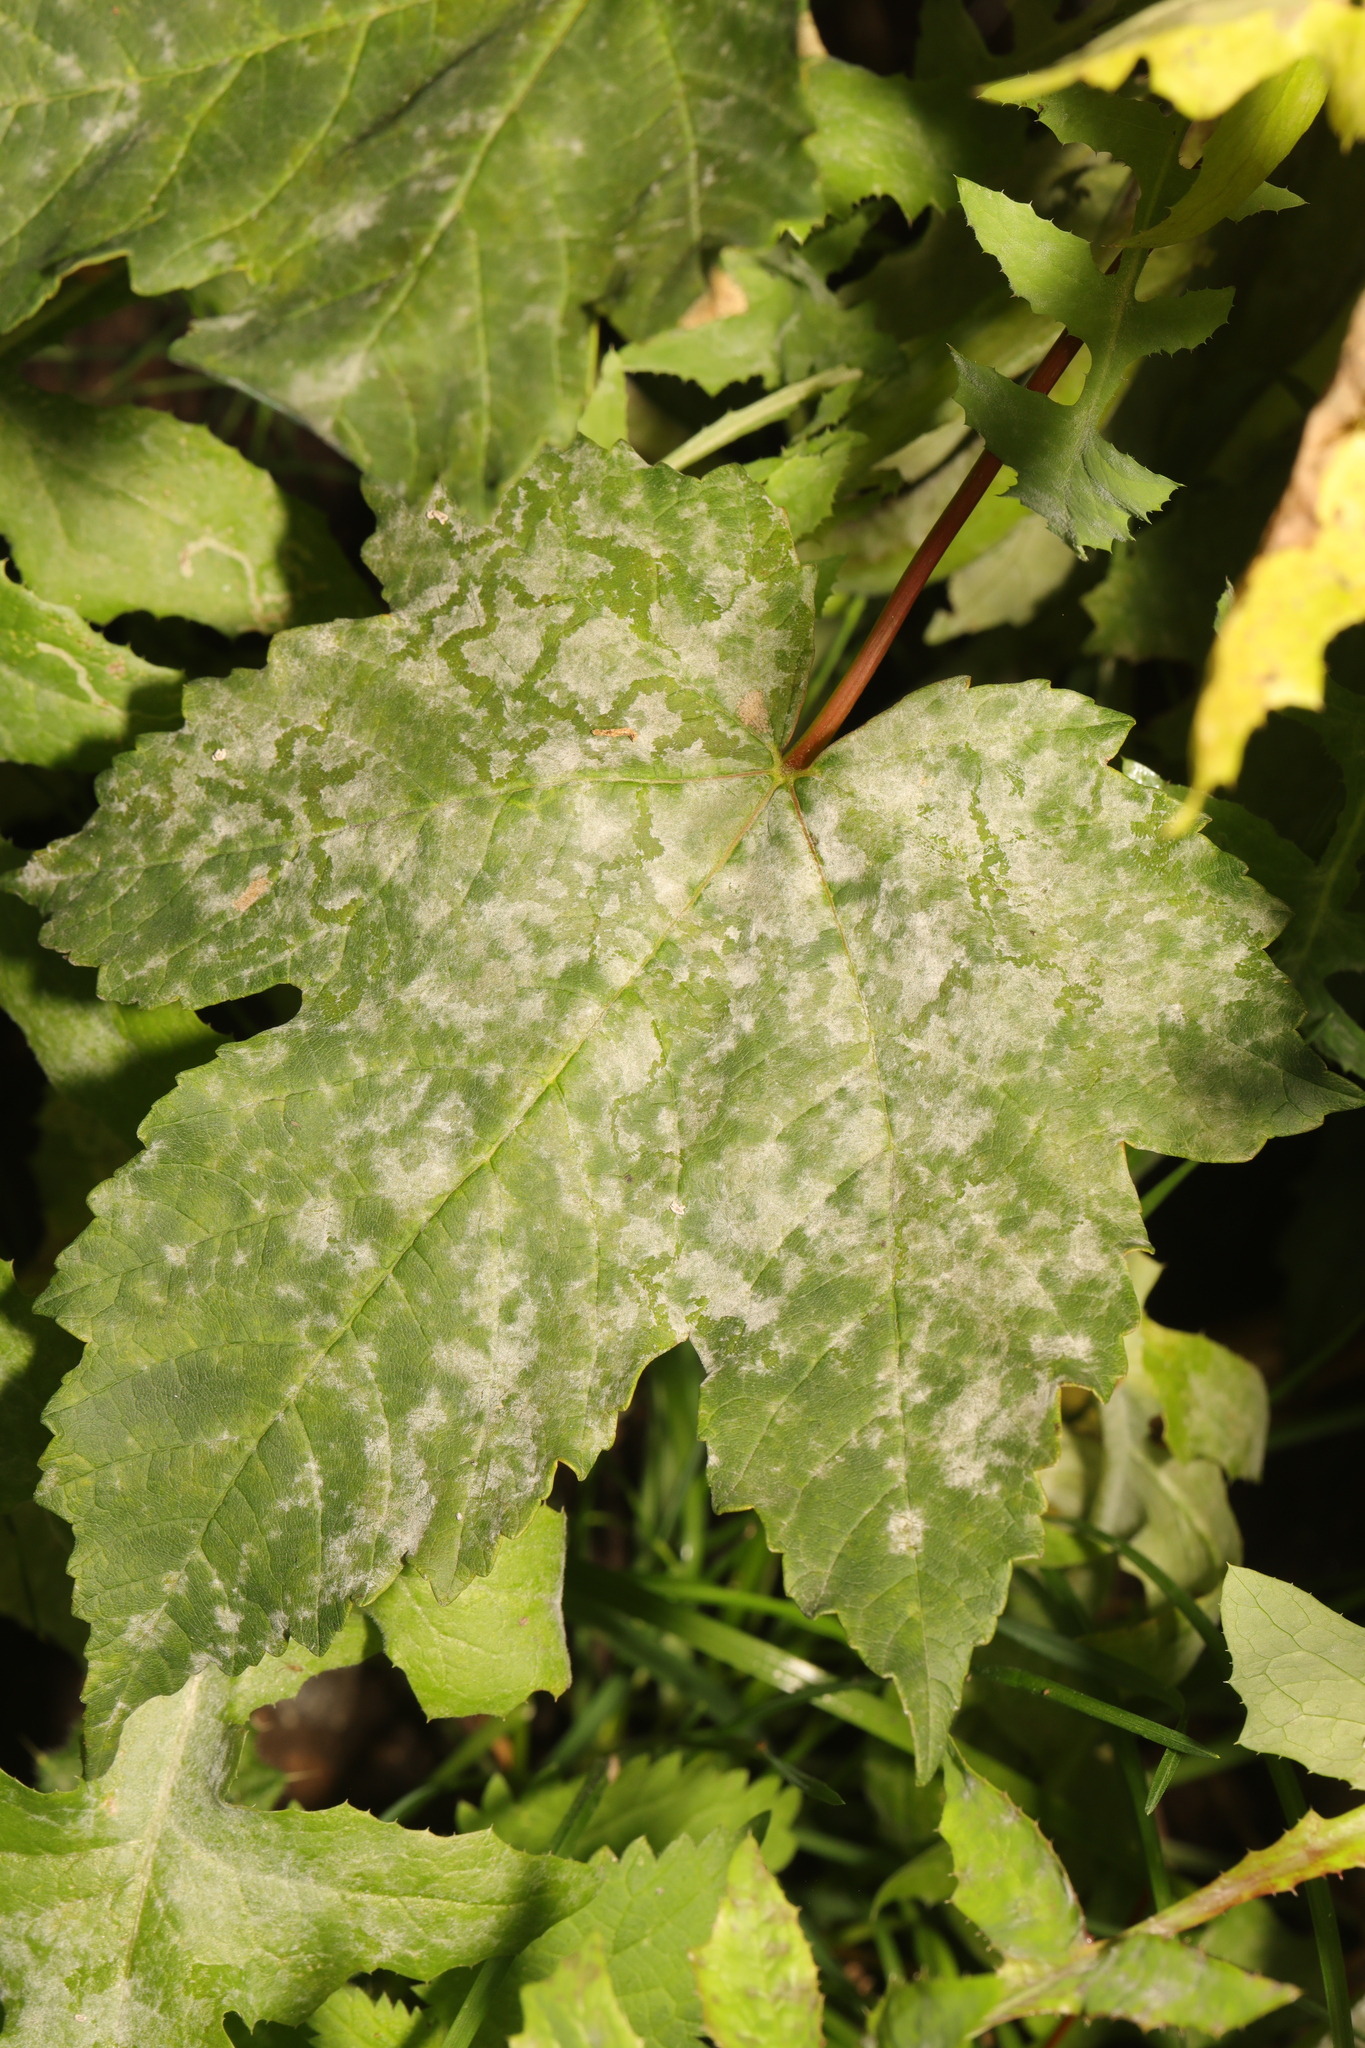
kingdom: Plantae
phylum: Tracheophyta
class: Magnoliopsida
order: Sapindales
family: Sapindaceae
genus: Acer
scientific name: Acer pseudoplatanus
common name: Sycamore
